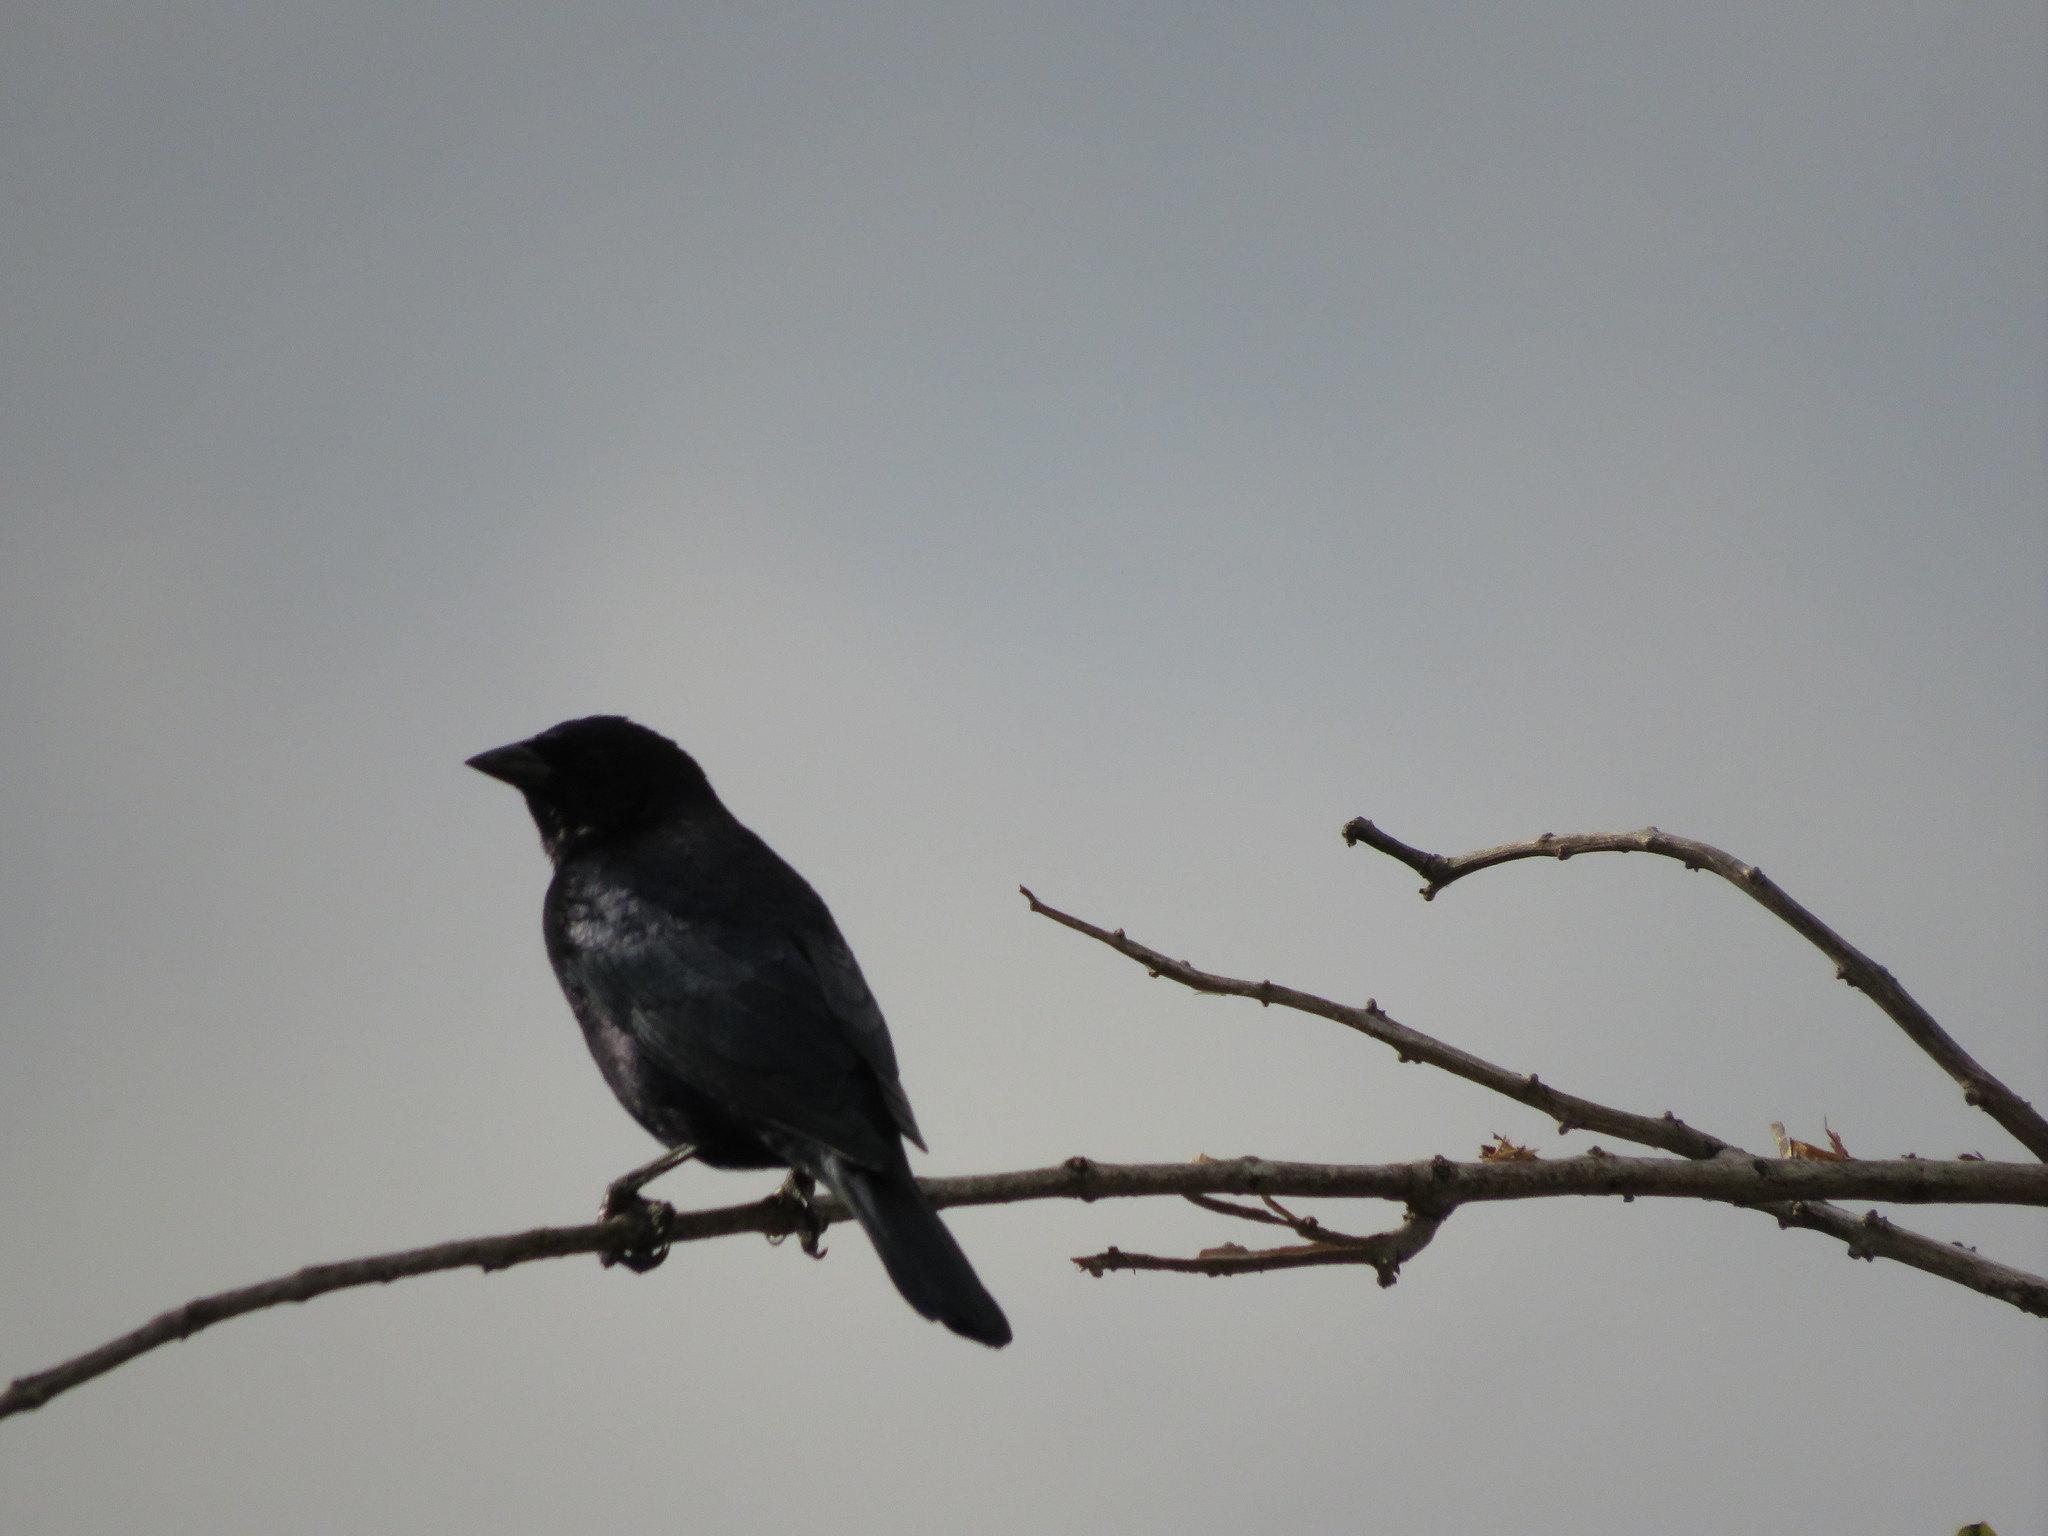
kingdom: Animalia
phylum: Chordata
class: Aves
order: Passeriformes
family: Icteridae
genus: Molothrus
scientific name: Molothrus bonariensis
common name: Shiny cowbird
